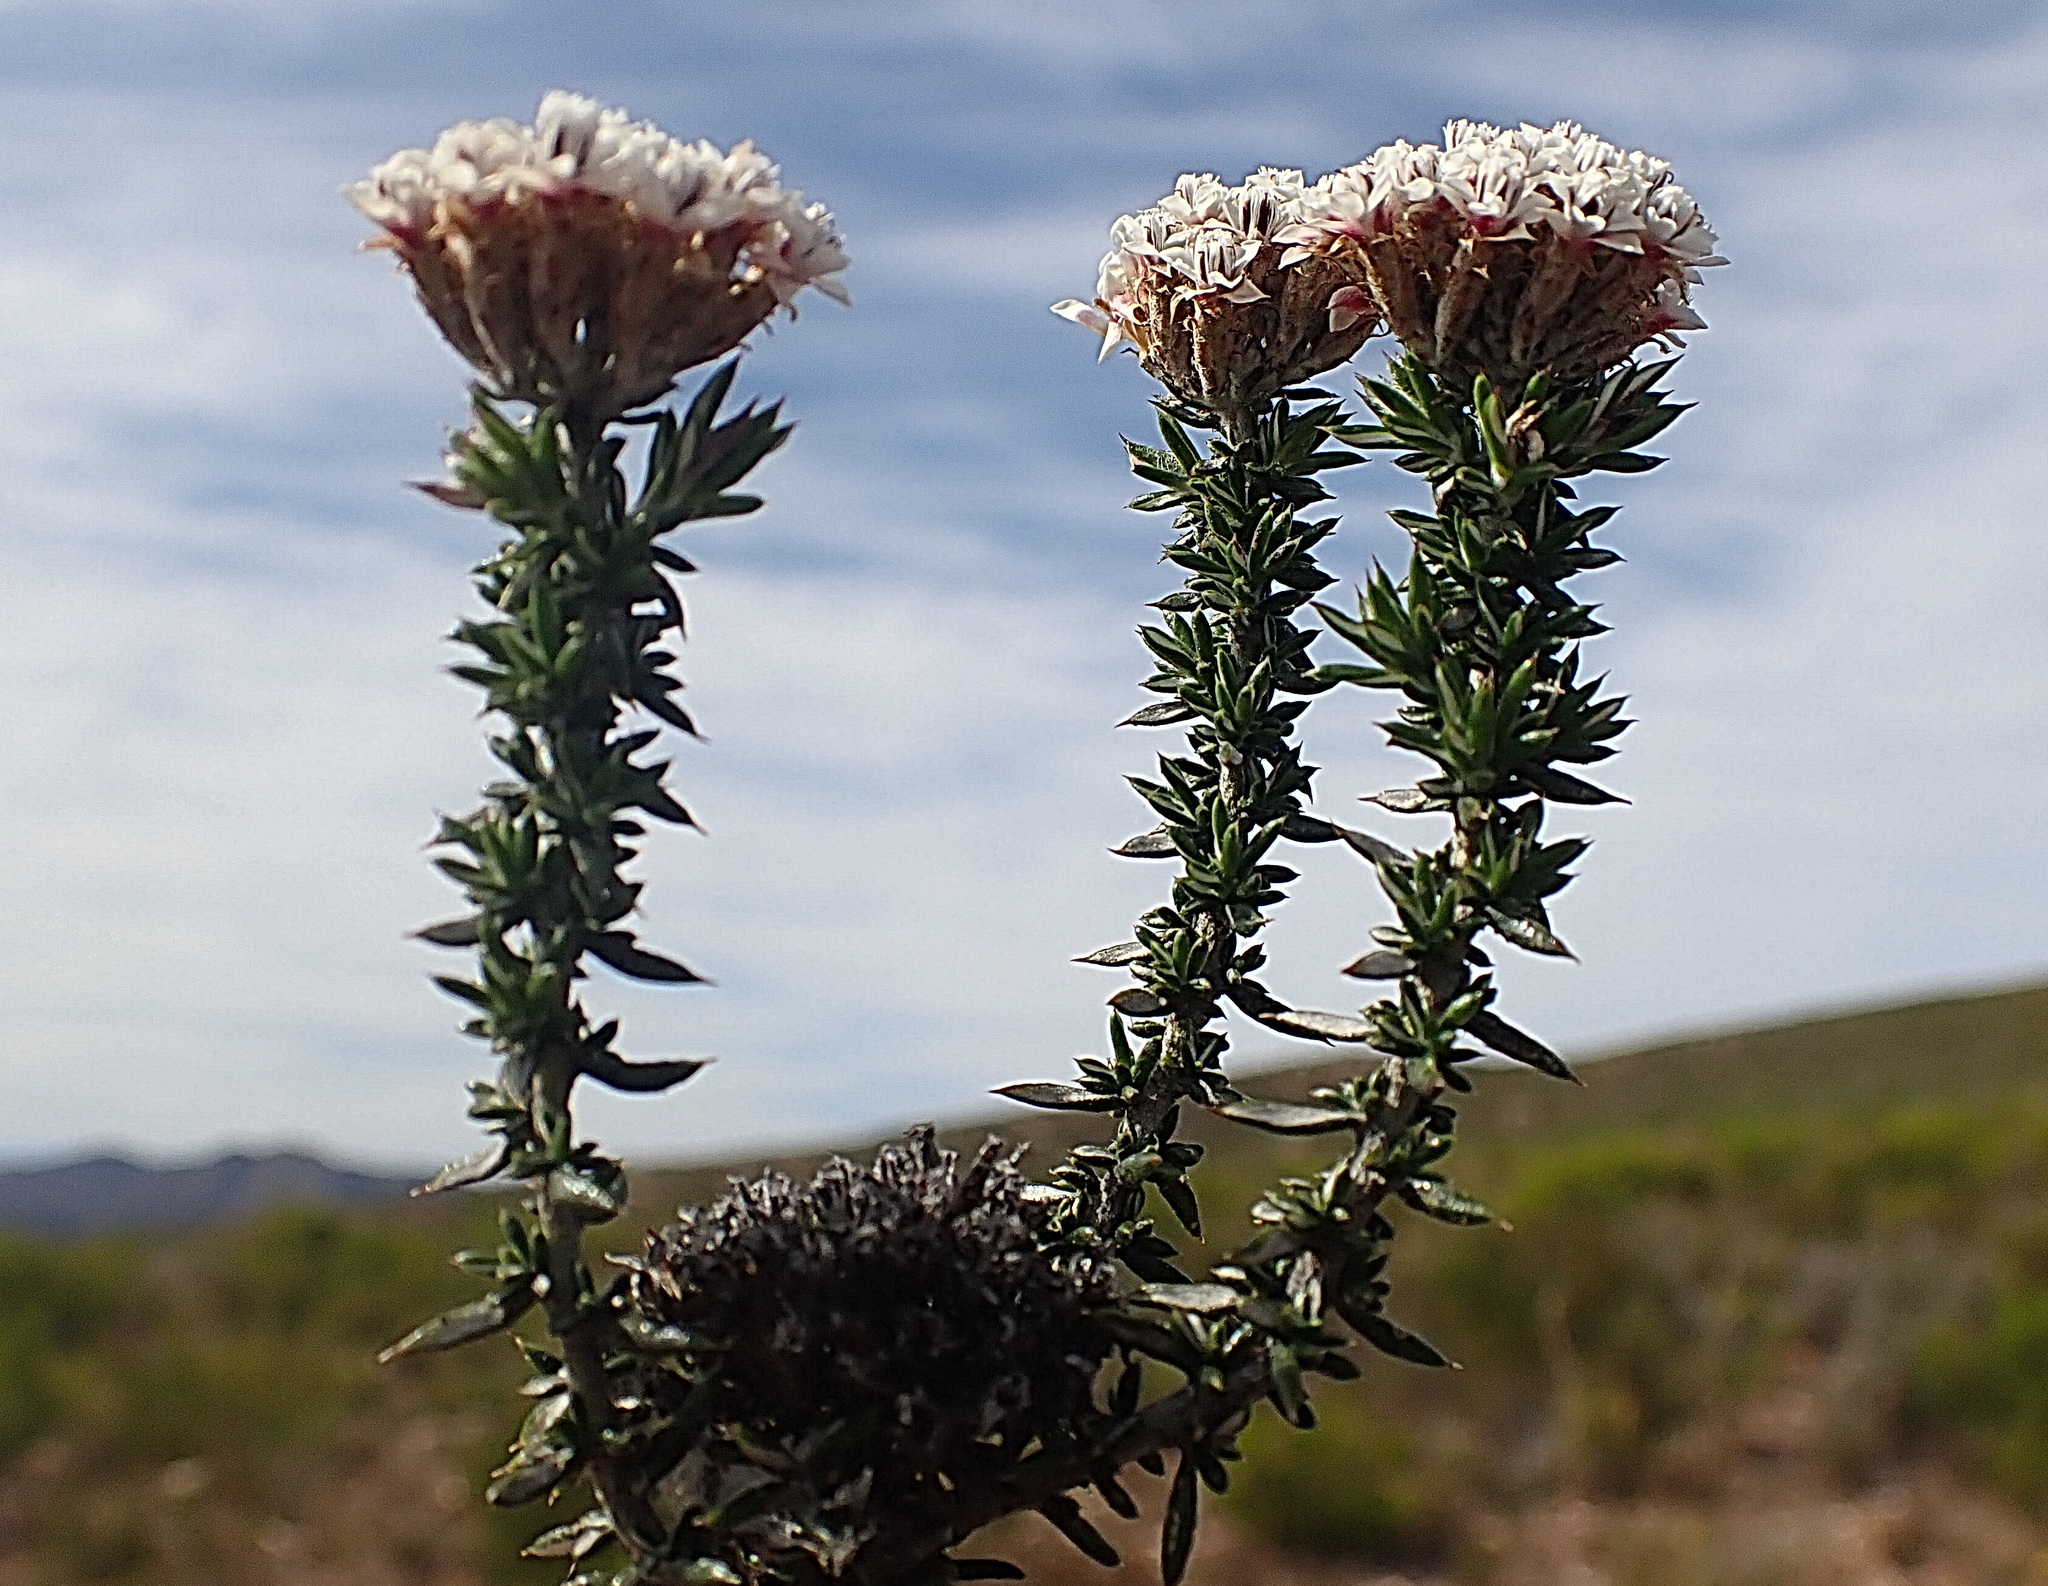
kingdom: Plantae
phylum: Tracheophyta
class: Magnoliopsida
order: Asterales
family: Asteraceae
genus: Metalasia
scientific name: Metalasia massonii
